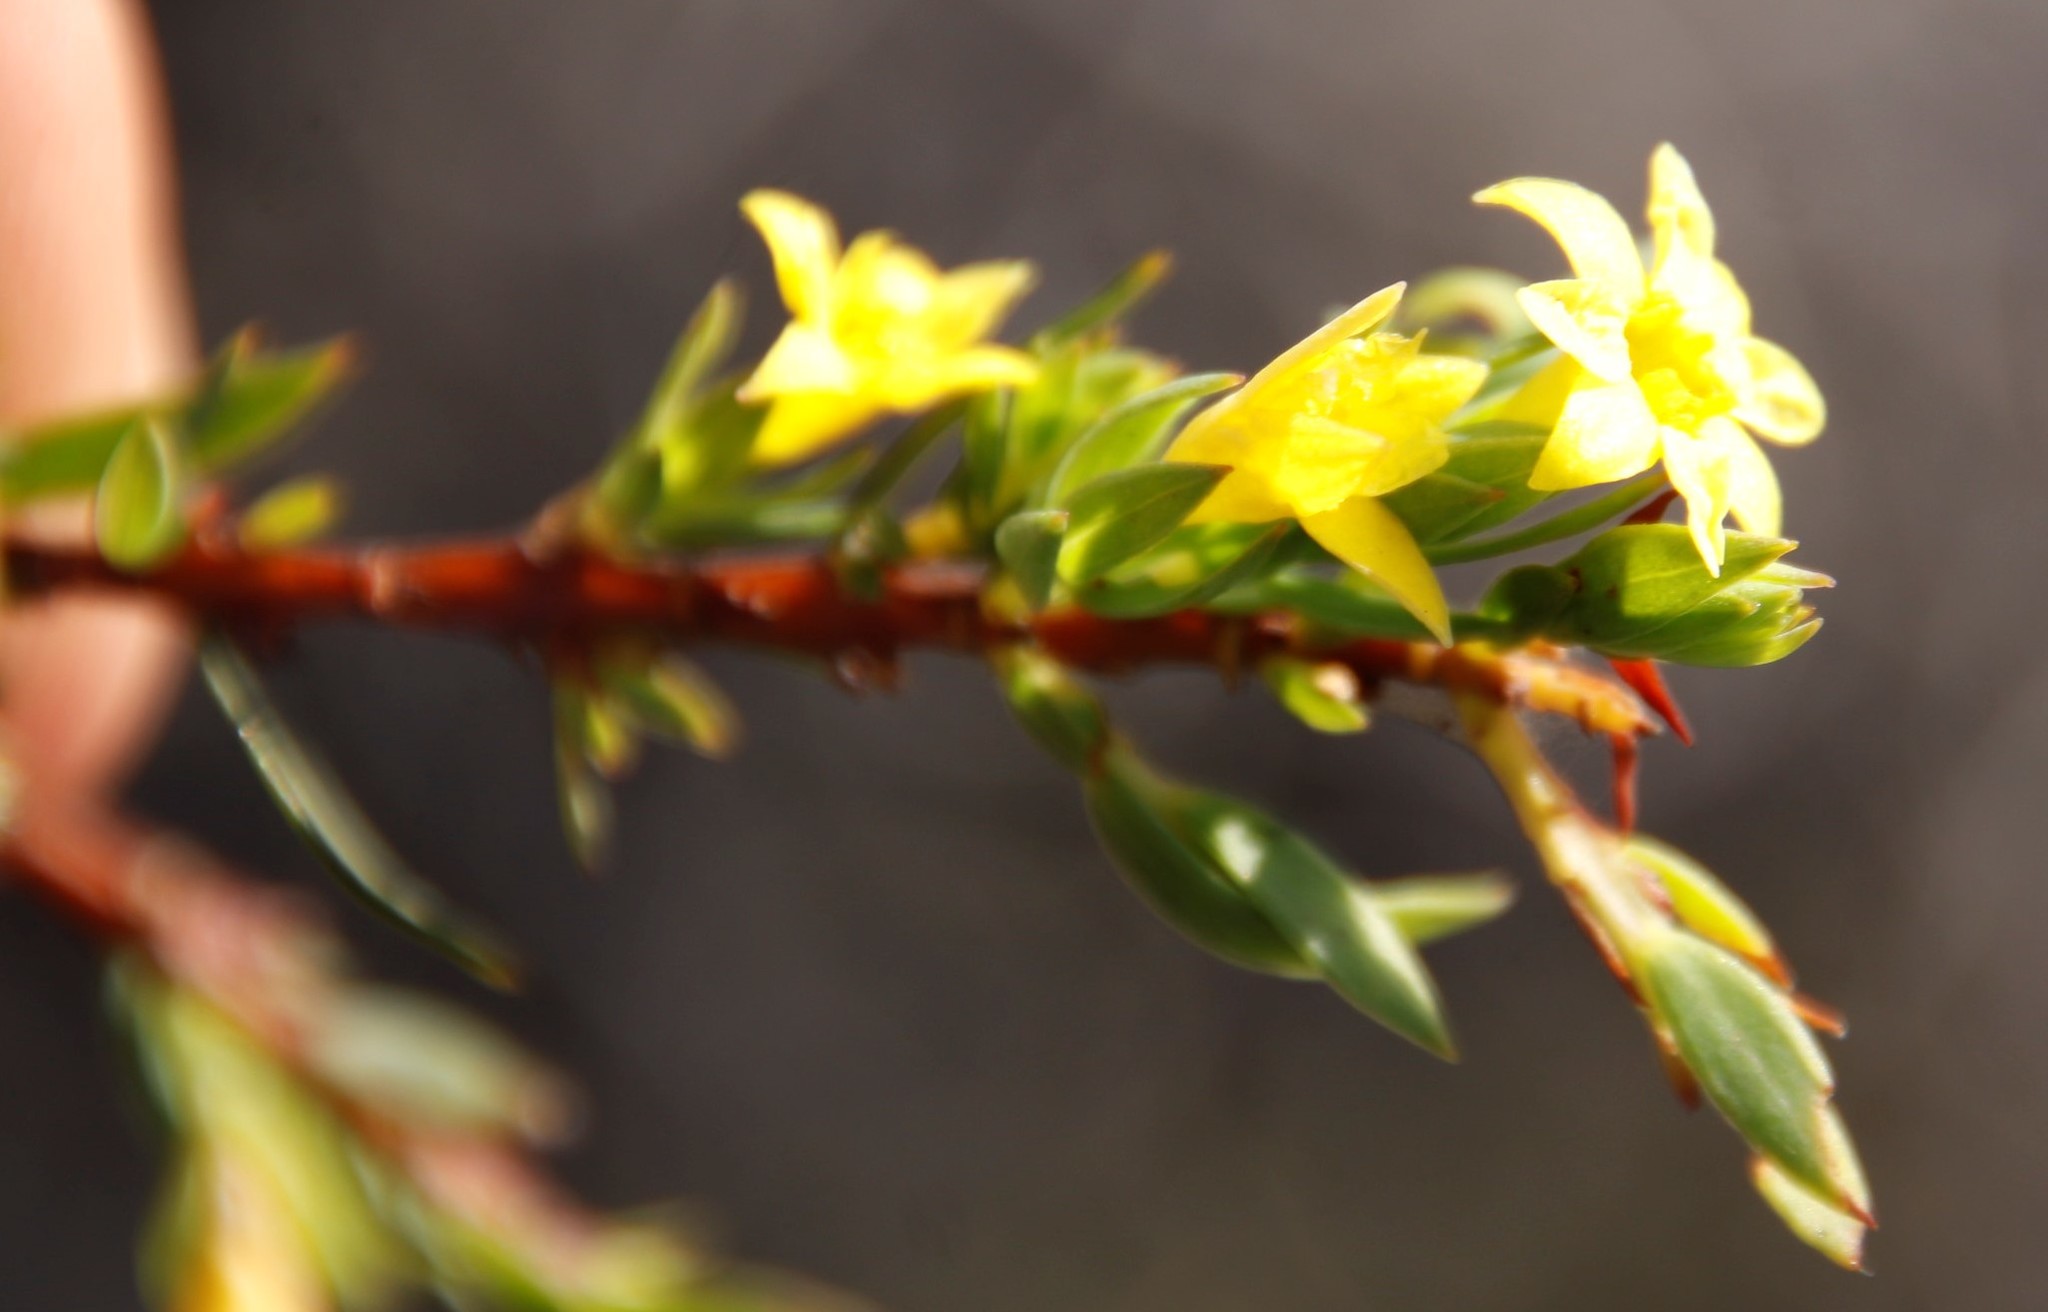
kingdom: Plantae
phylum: Tracheophyta
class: Magnoliopsida
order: Malvales
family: Thymelaeaceae
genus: Gnidia
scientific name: Gnidia juniperifolia
